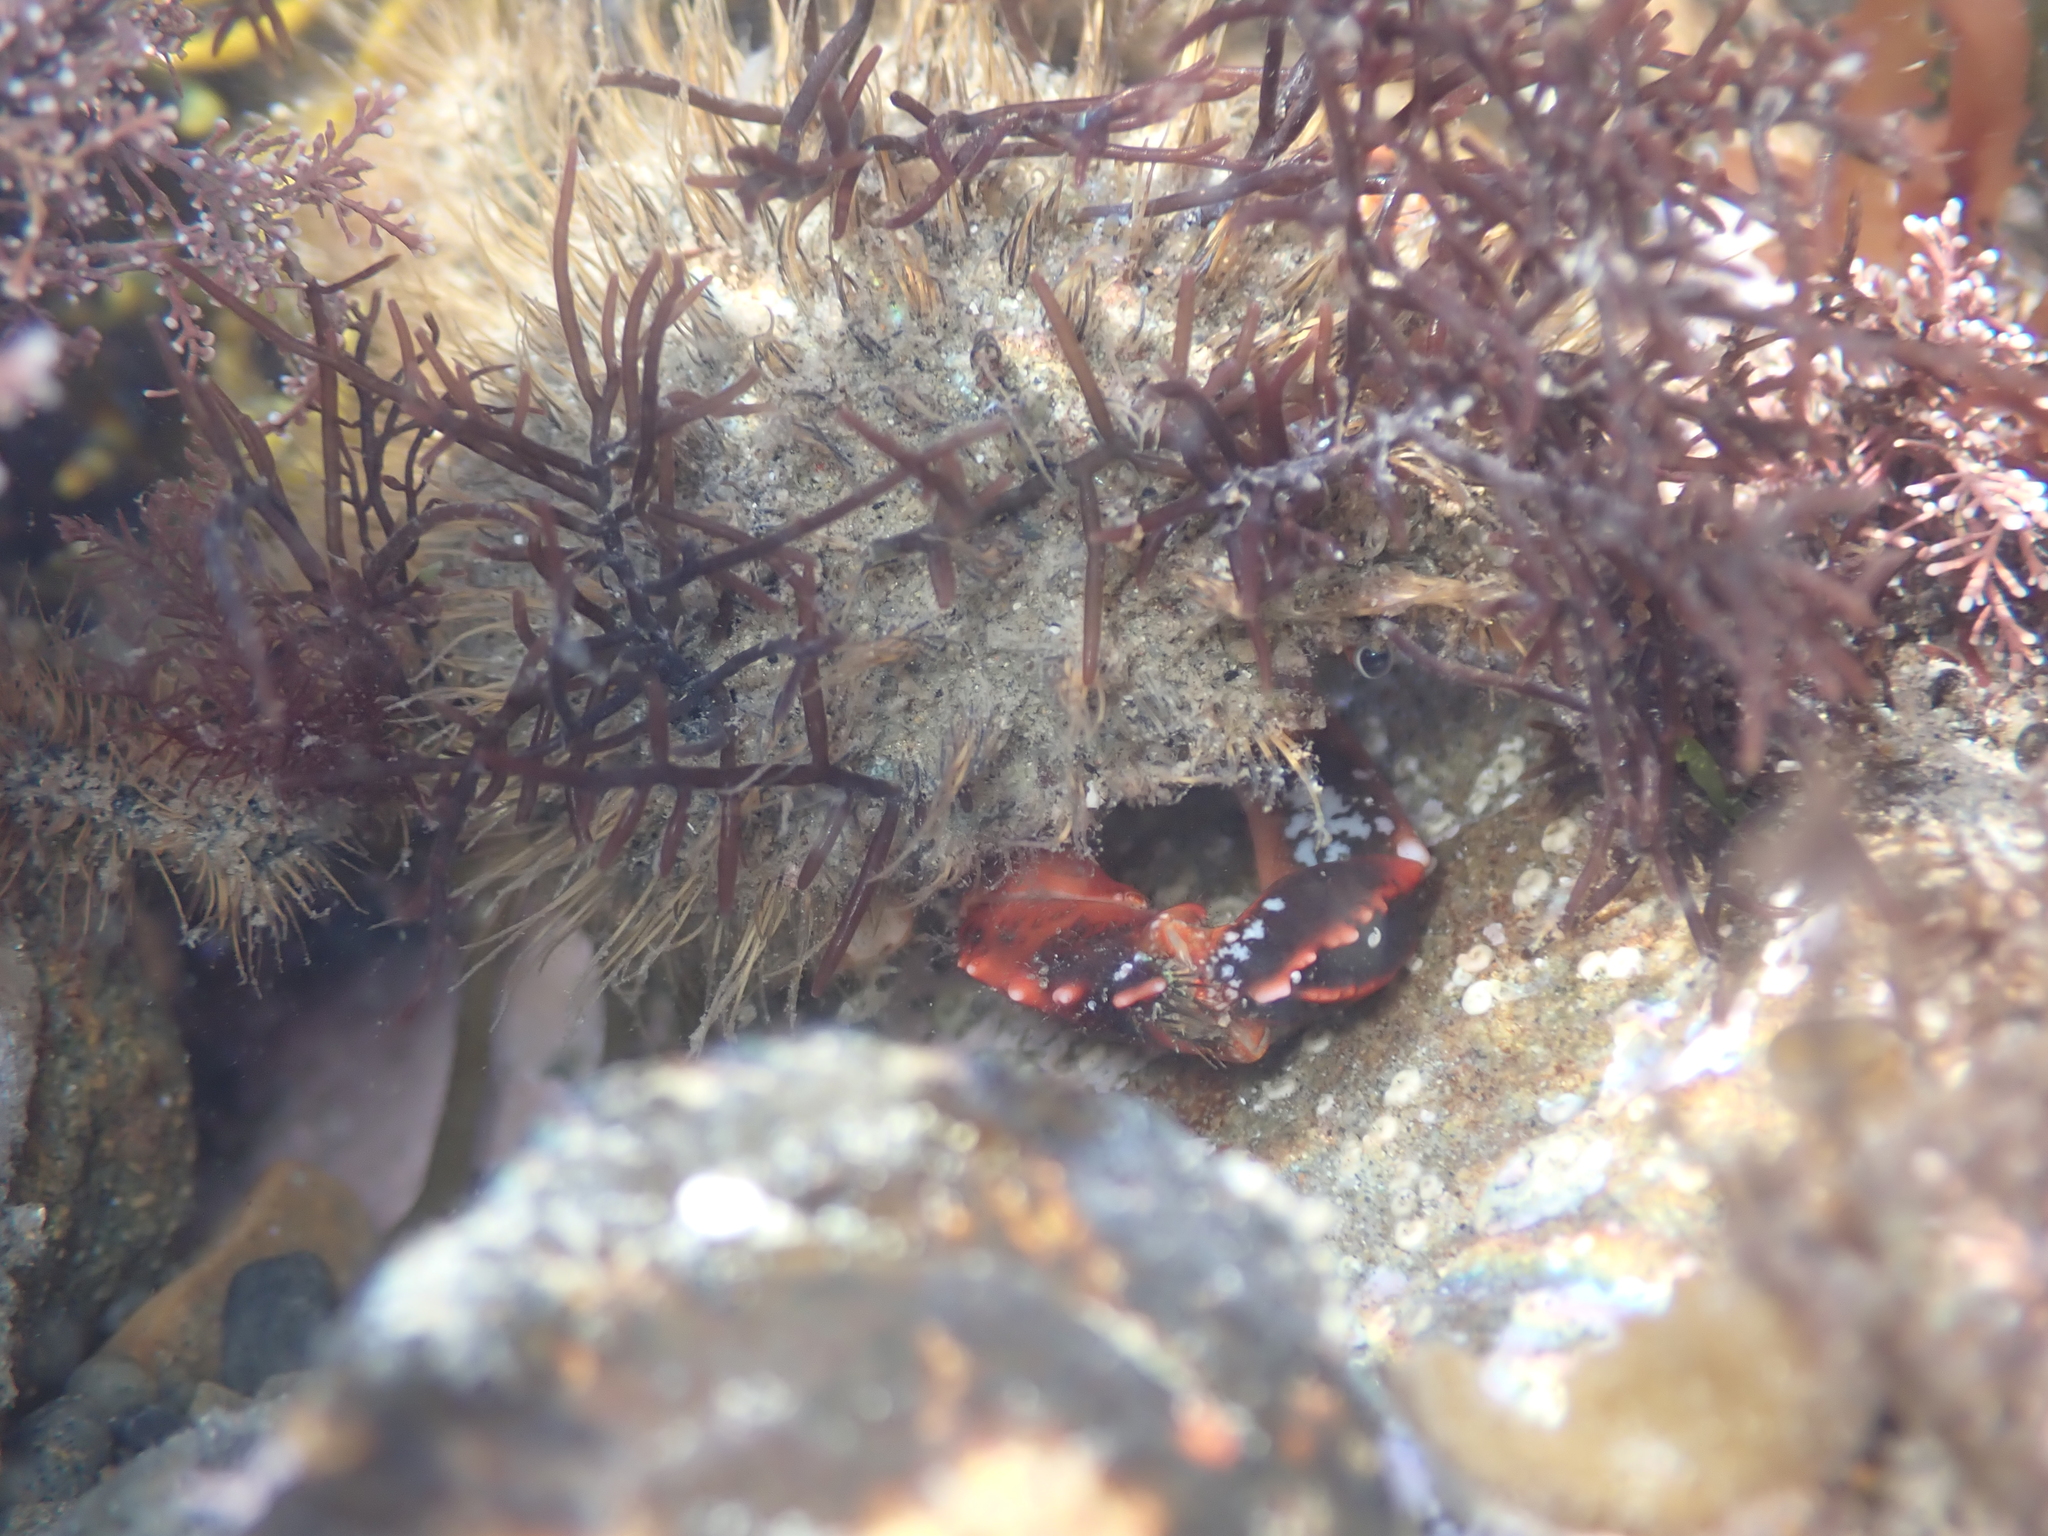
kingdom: Animalia
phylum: Arthropoda
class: Malacostraca
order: Decapoda
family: Majidae
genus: Notomithrax
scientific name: Notomithrax ursus
